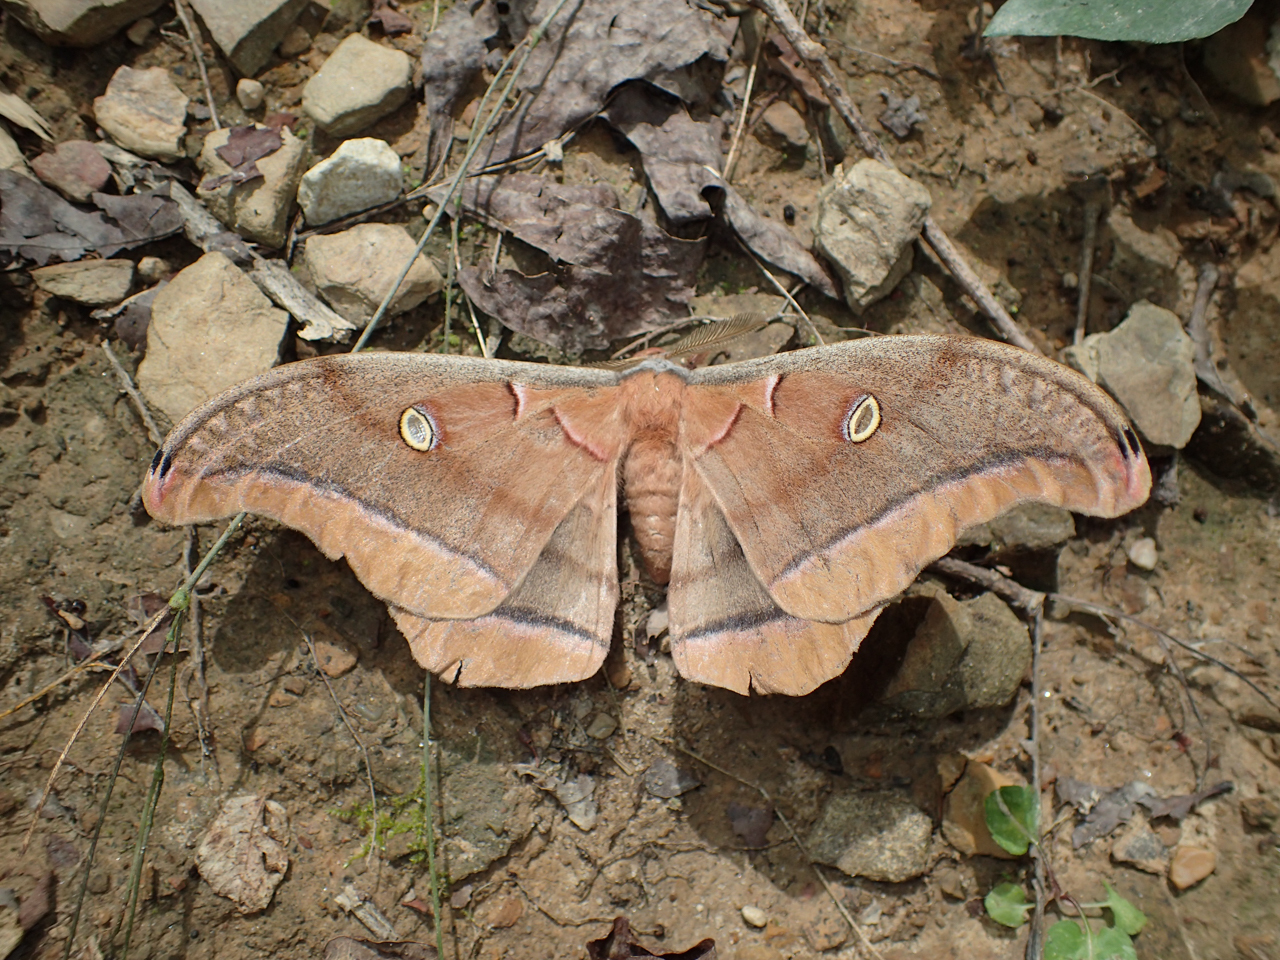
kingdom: Animalia
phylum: Arthropoda
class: Insecta
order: Lepidoptera
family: Saturniidae
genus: Antheraea
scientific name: Antheraea polyphemus
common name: Polyphemus moth
